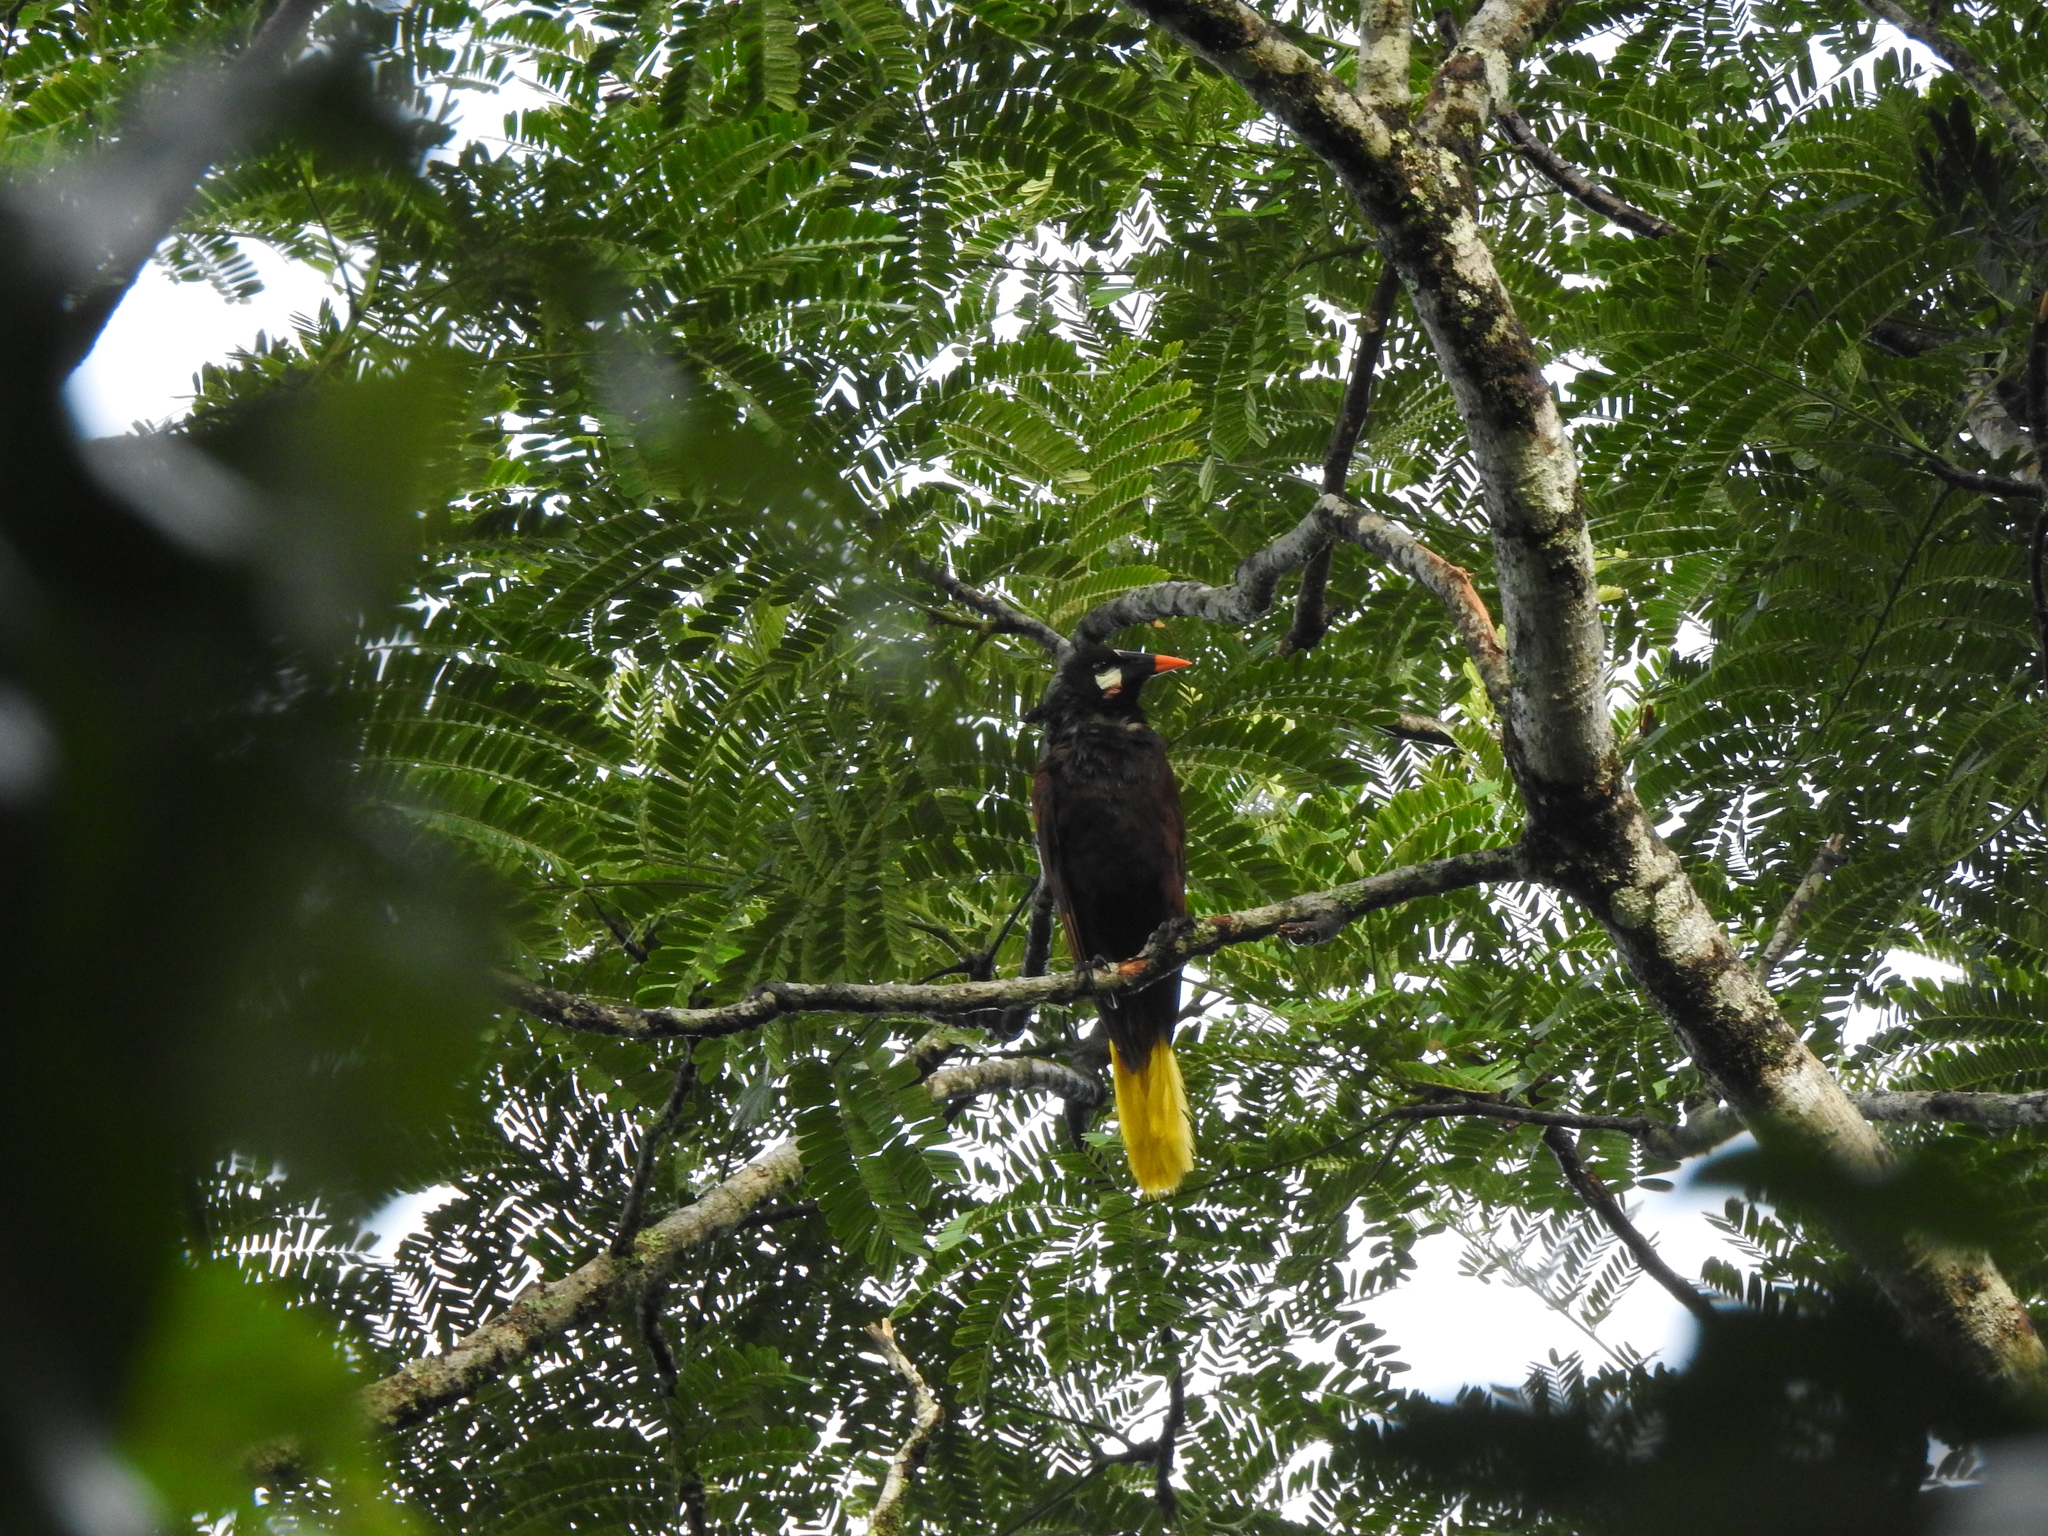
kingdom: Animalia
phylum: Chordata
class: Aves
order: Passeriformes
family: Icteridae
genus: Psarocolius
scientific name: Psarocolius montezuma
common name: Montezuma oropendola
